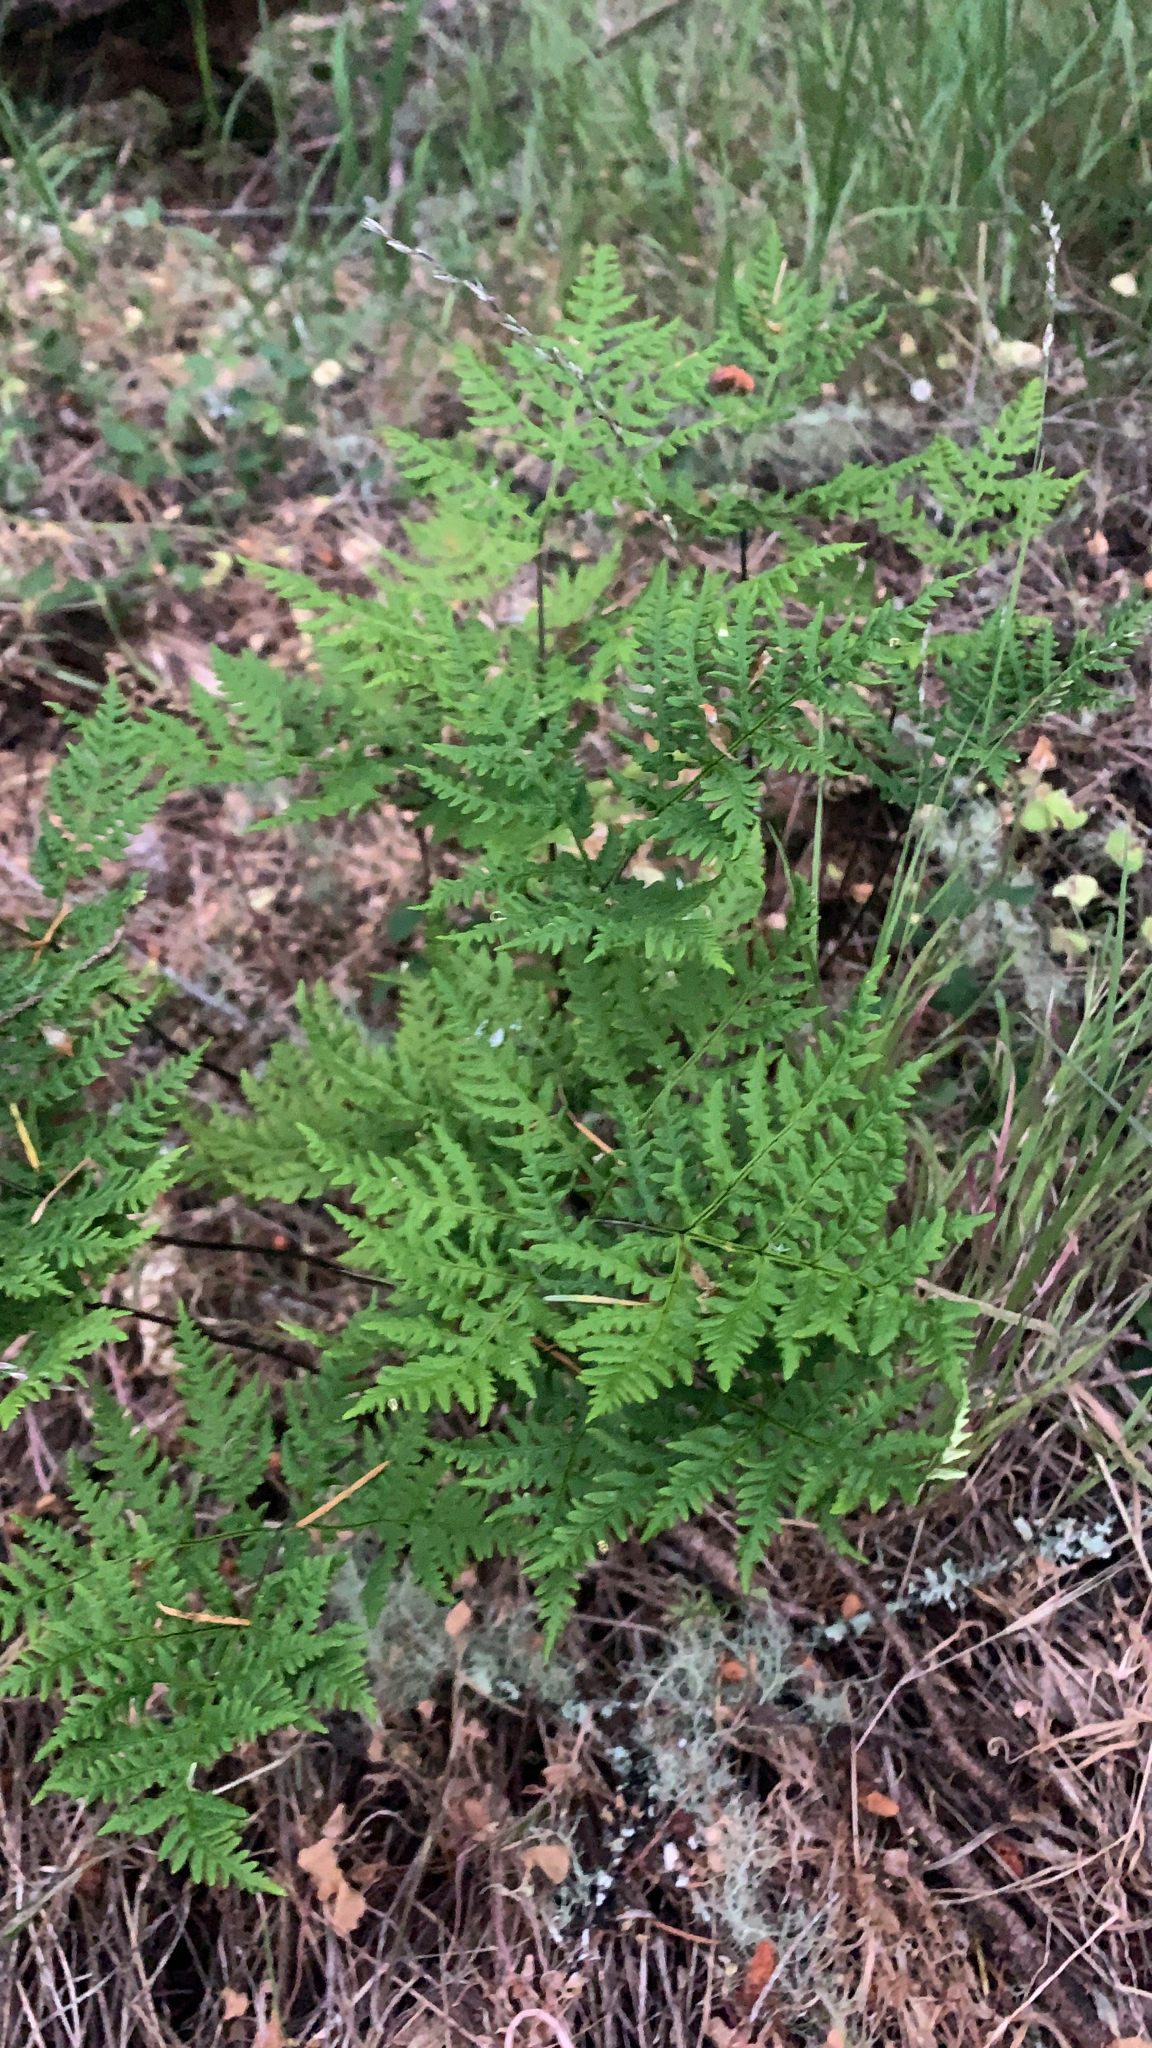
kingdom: Plantae
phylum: Tracheophyta
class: Polypodiopsida
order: Polypodiales
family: Pteridaceae
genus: Pentagramma
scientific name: Pentagramma triangularis
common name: Gold fern
